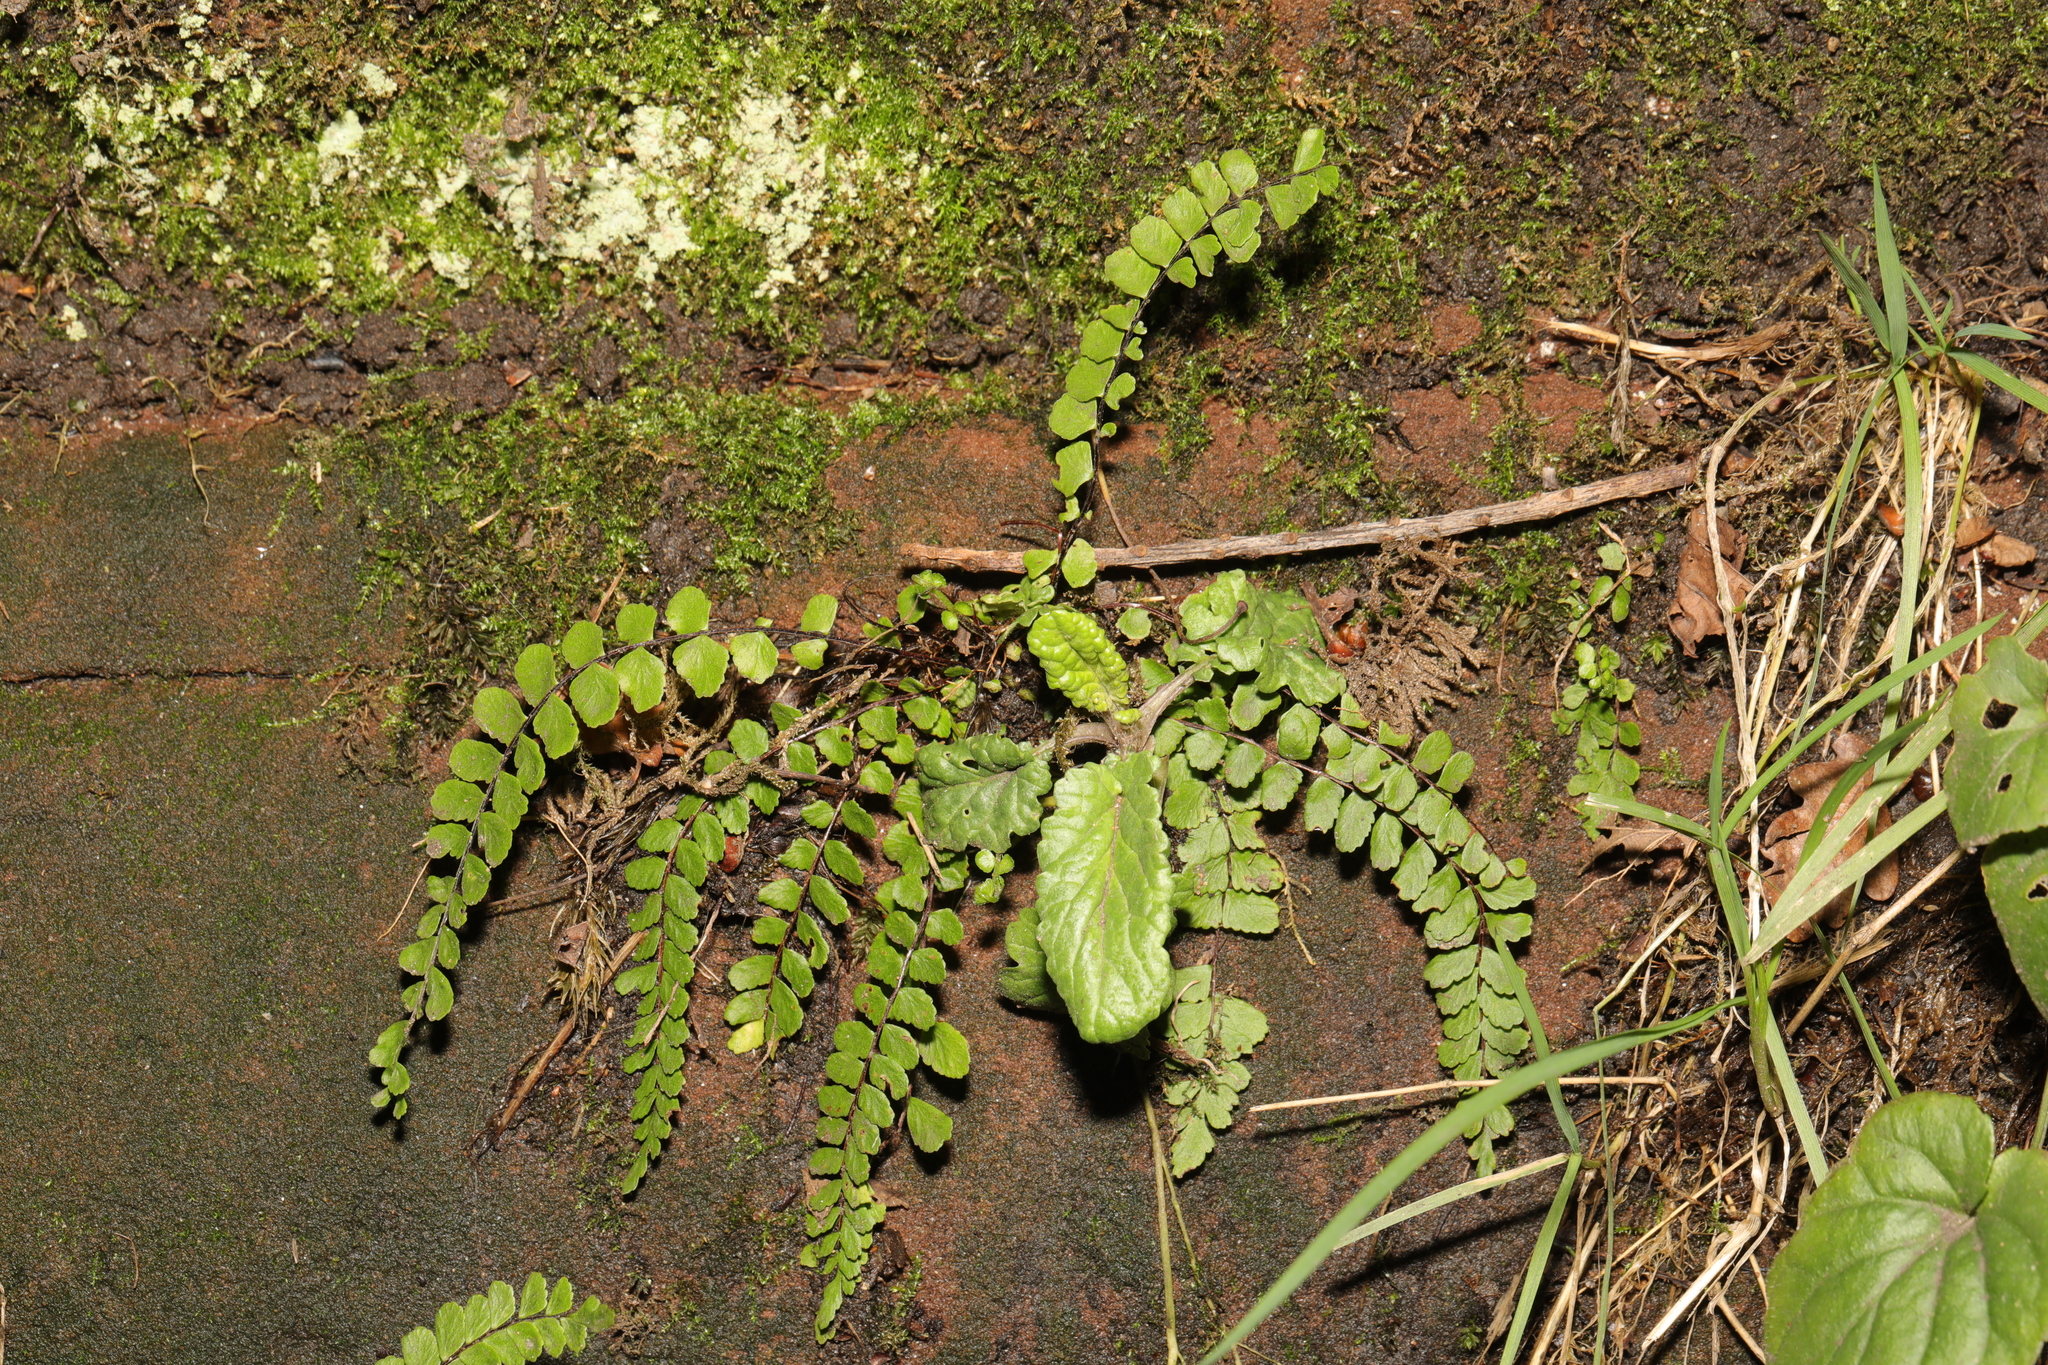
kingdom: Plantae
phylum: Tracheophyta
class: Polypodiopsida
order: Polypodiales
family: Aspleniaceae
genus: Asplenium
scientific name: Asplenium trichomanes
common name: Maidenhair spleenwort
